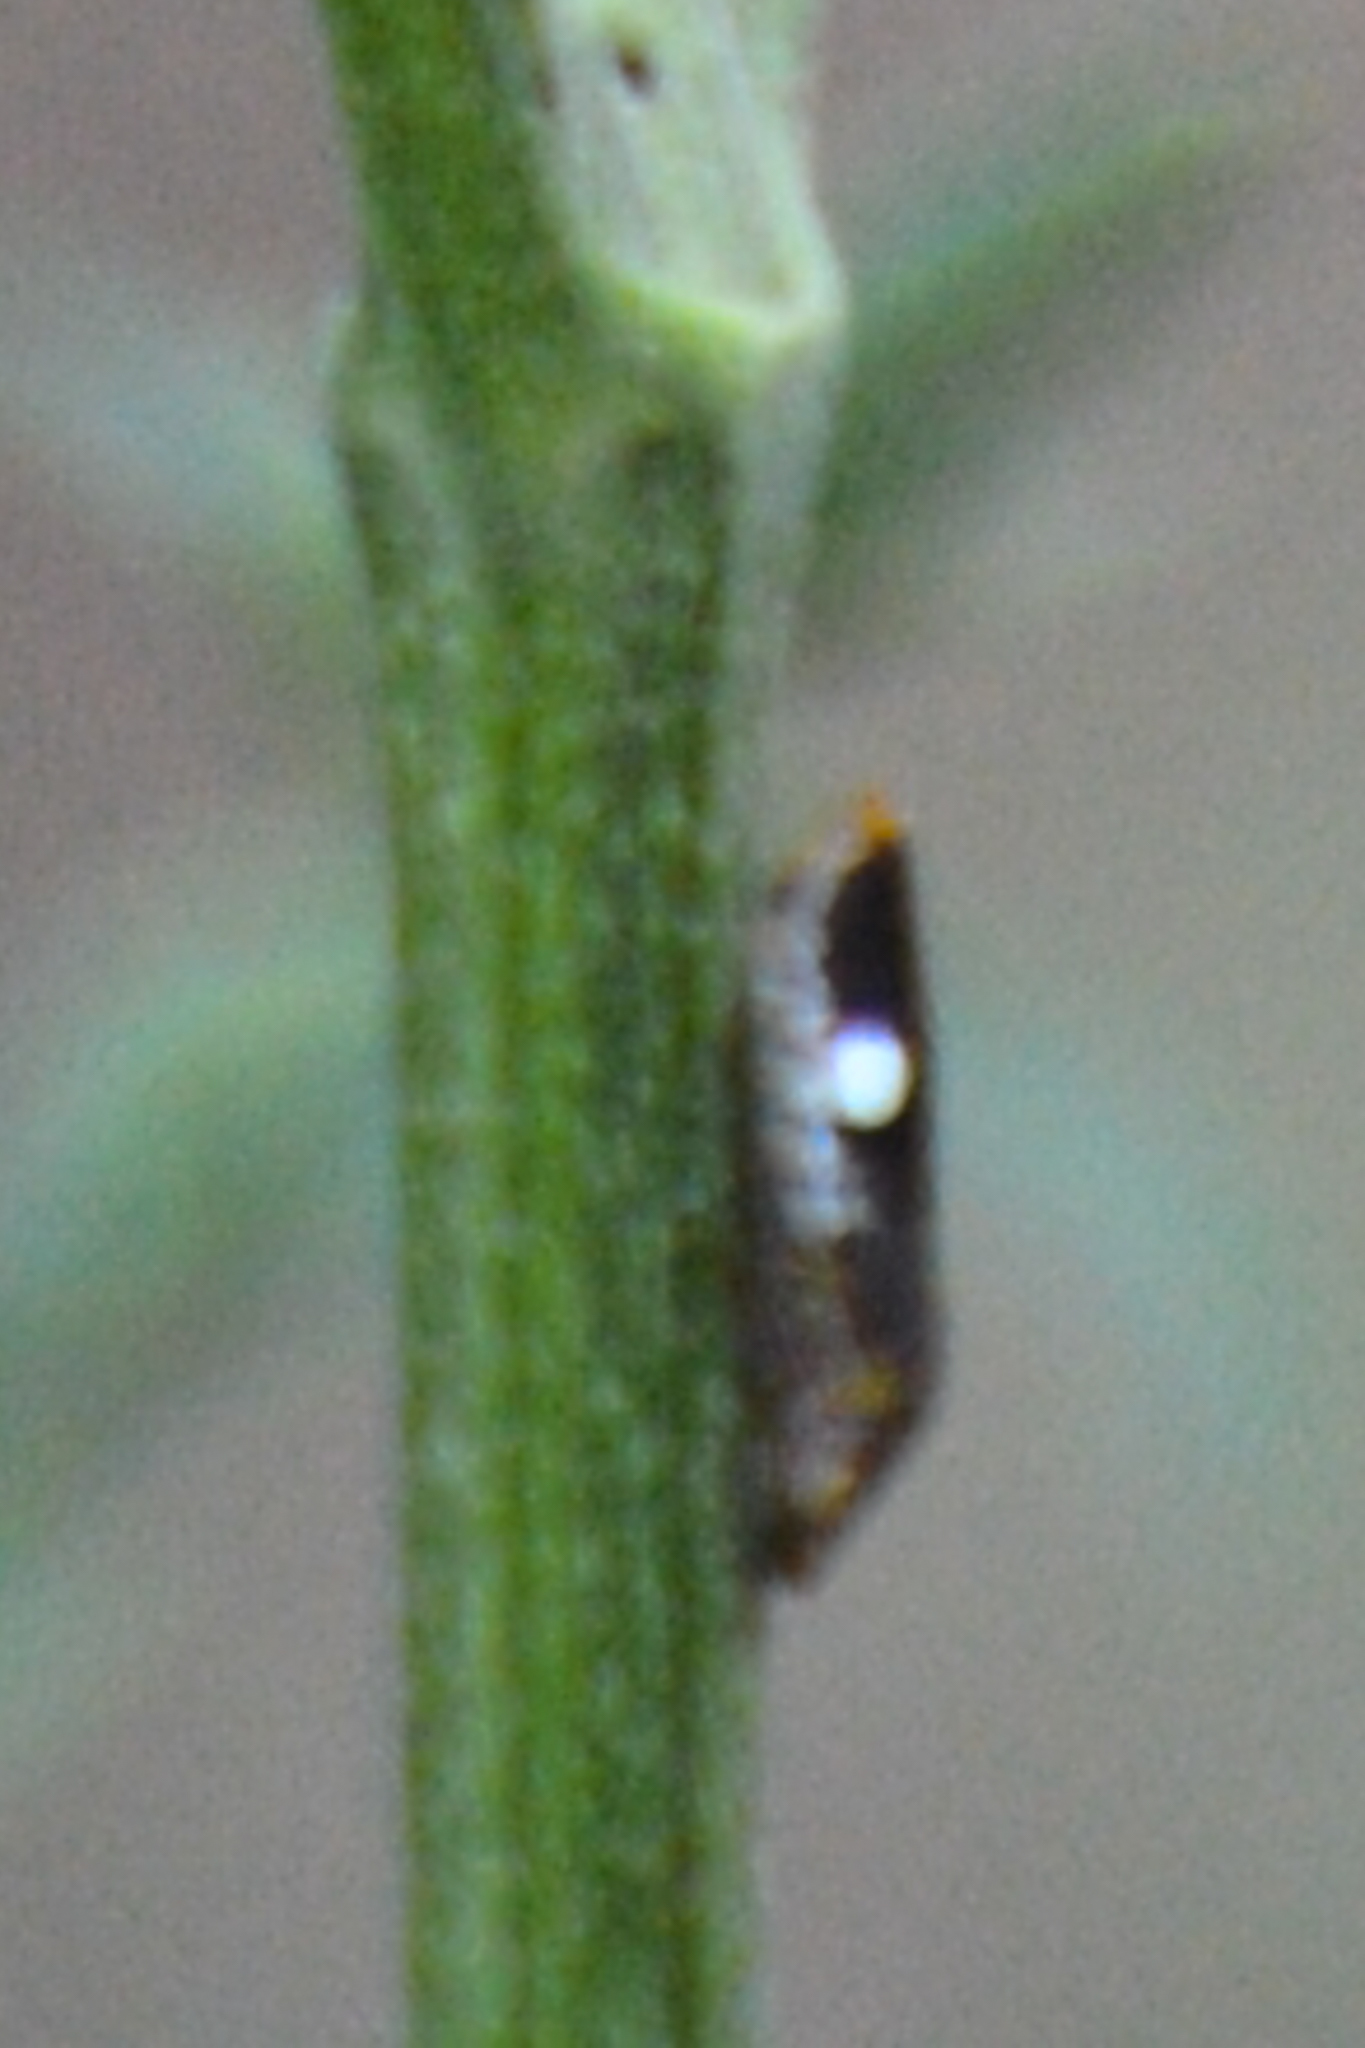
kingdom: Animalia
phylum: Arthropoda
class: Insecta
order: Hemiptera
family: Cicadellidae
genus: Homalodisca
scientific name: Homalodisca vitripennis
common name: Glassy-winged sharpshooter
